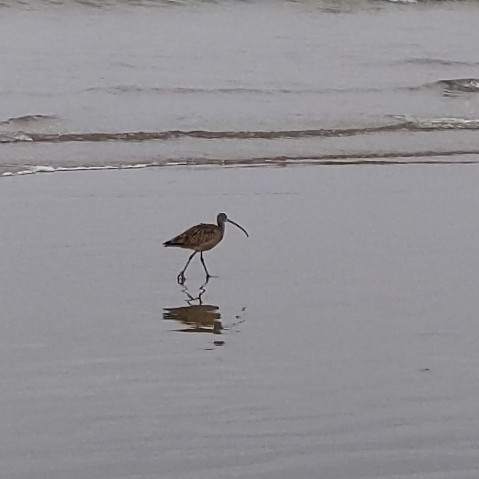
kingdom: Animalia
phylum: Chordata
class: Aves
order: Charadriiformes
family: Scolopacidae
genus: Numenius
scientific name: Numenius americanus
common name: Long-billed curlew
